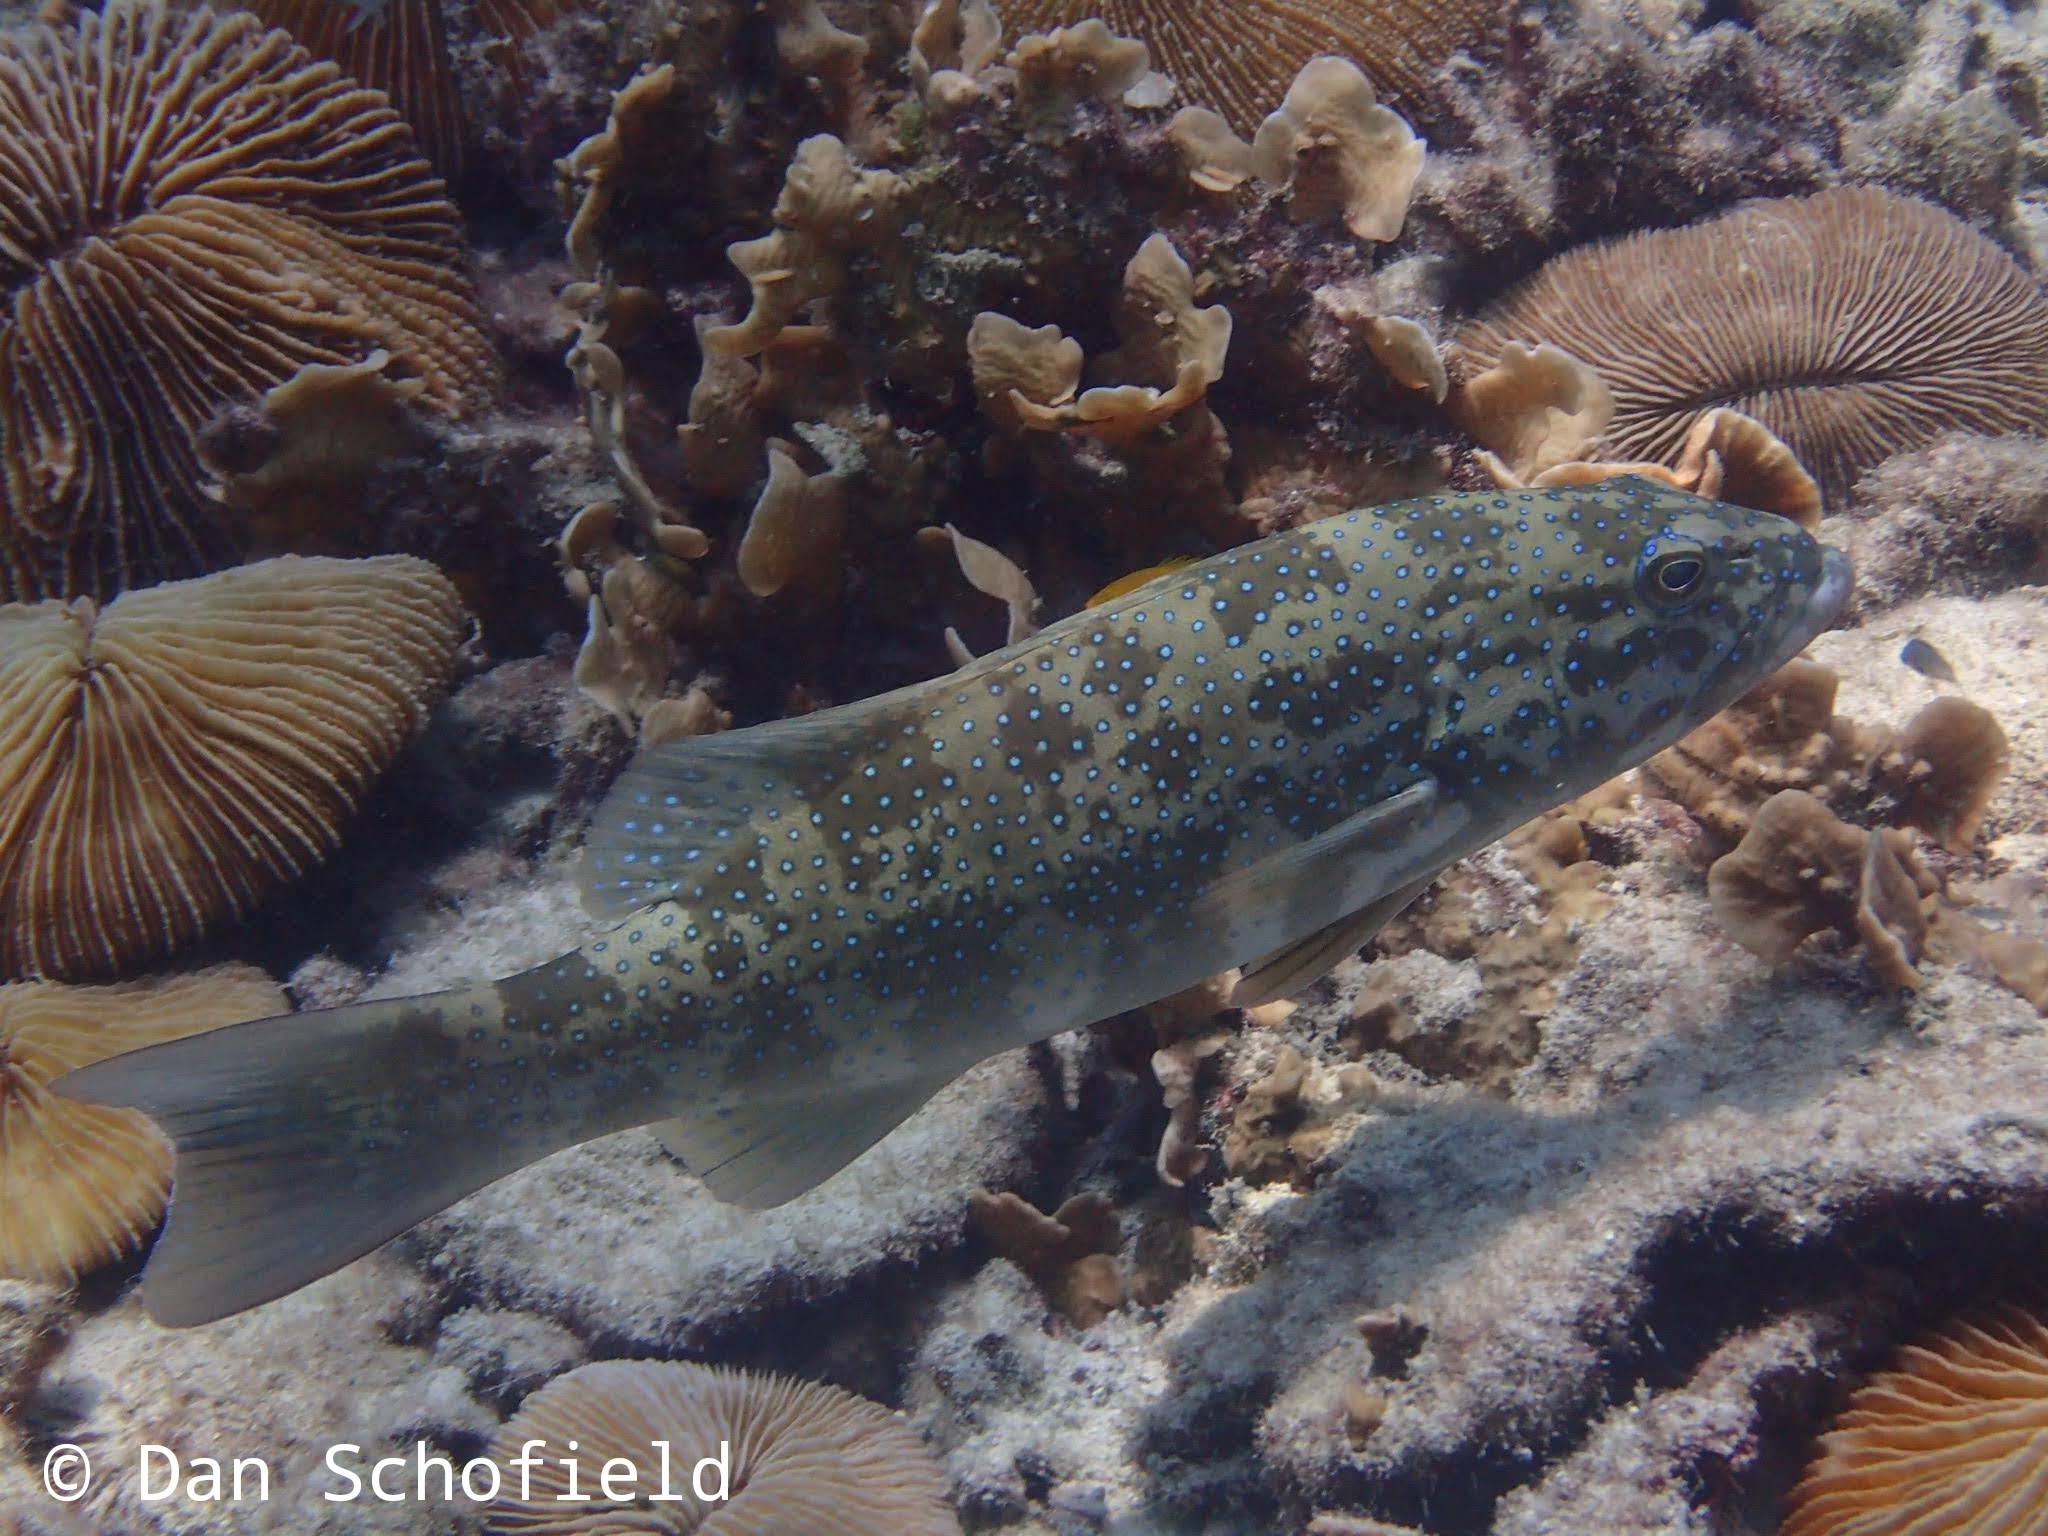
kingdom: Animalia
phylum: Chordata
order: Perciformes
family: Serranidae
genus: Plectropomus
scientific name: Plectropomus leopardus
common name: Coral trout
